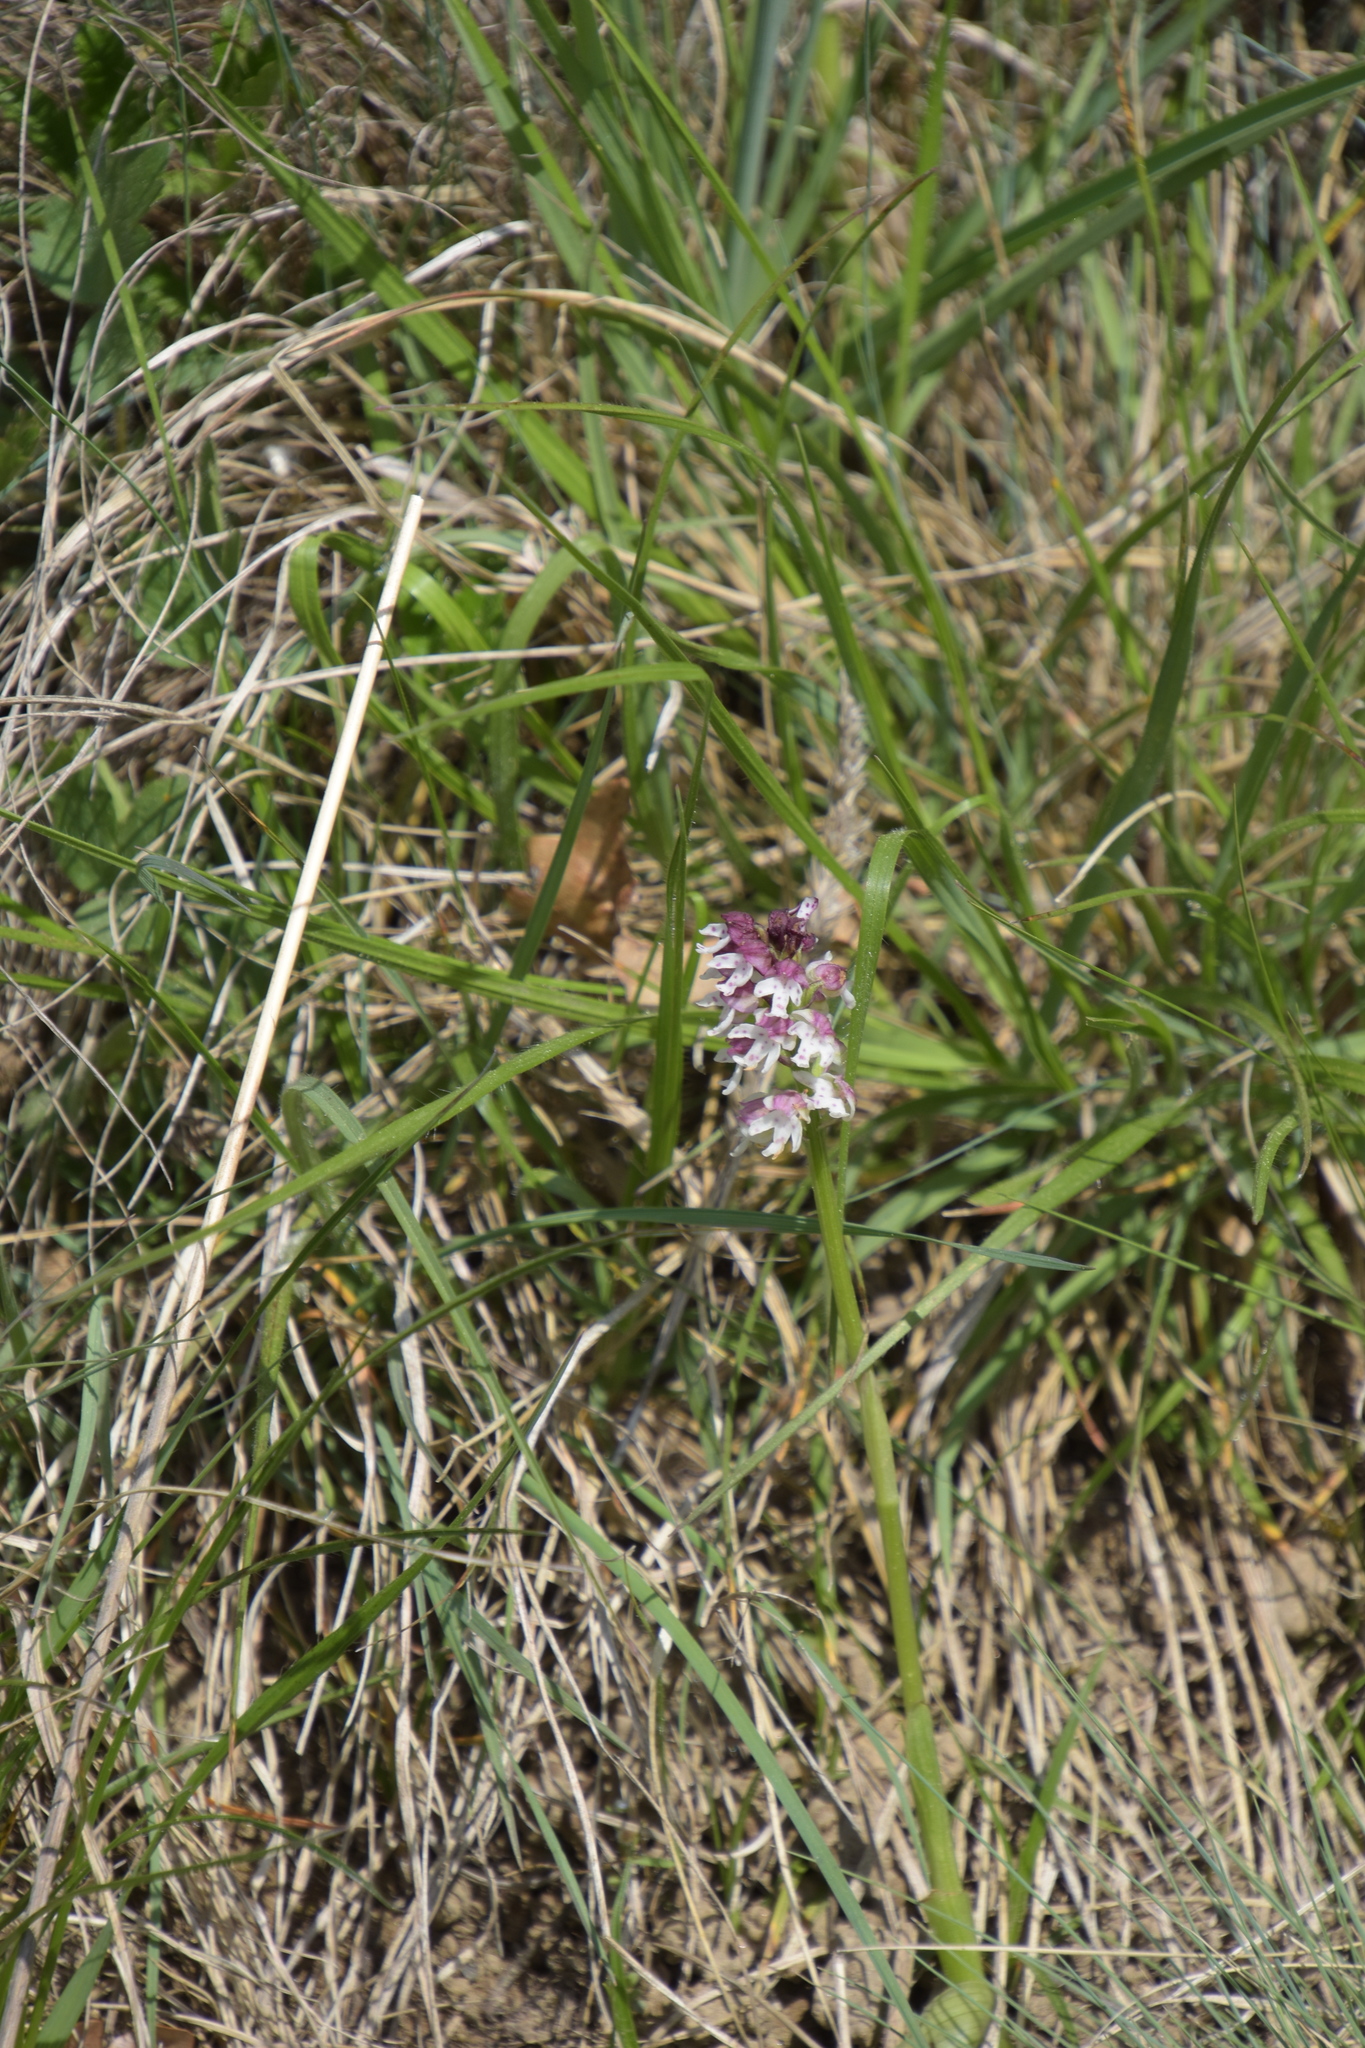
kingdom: Plantae
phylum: Tracheophyta
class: Liliopsida
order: Asparagales
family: Orchidaceae
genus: Neotinea
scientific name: Neotinea ustulata
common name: Burnt orchid
